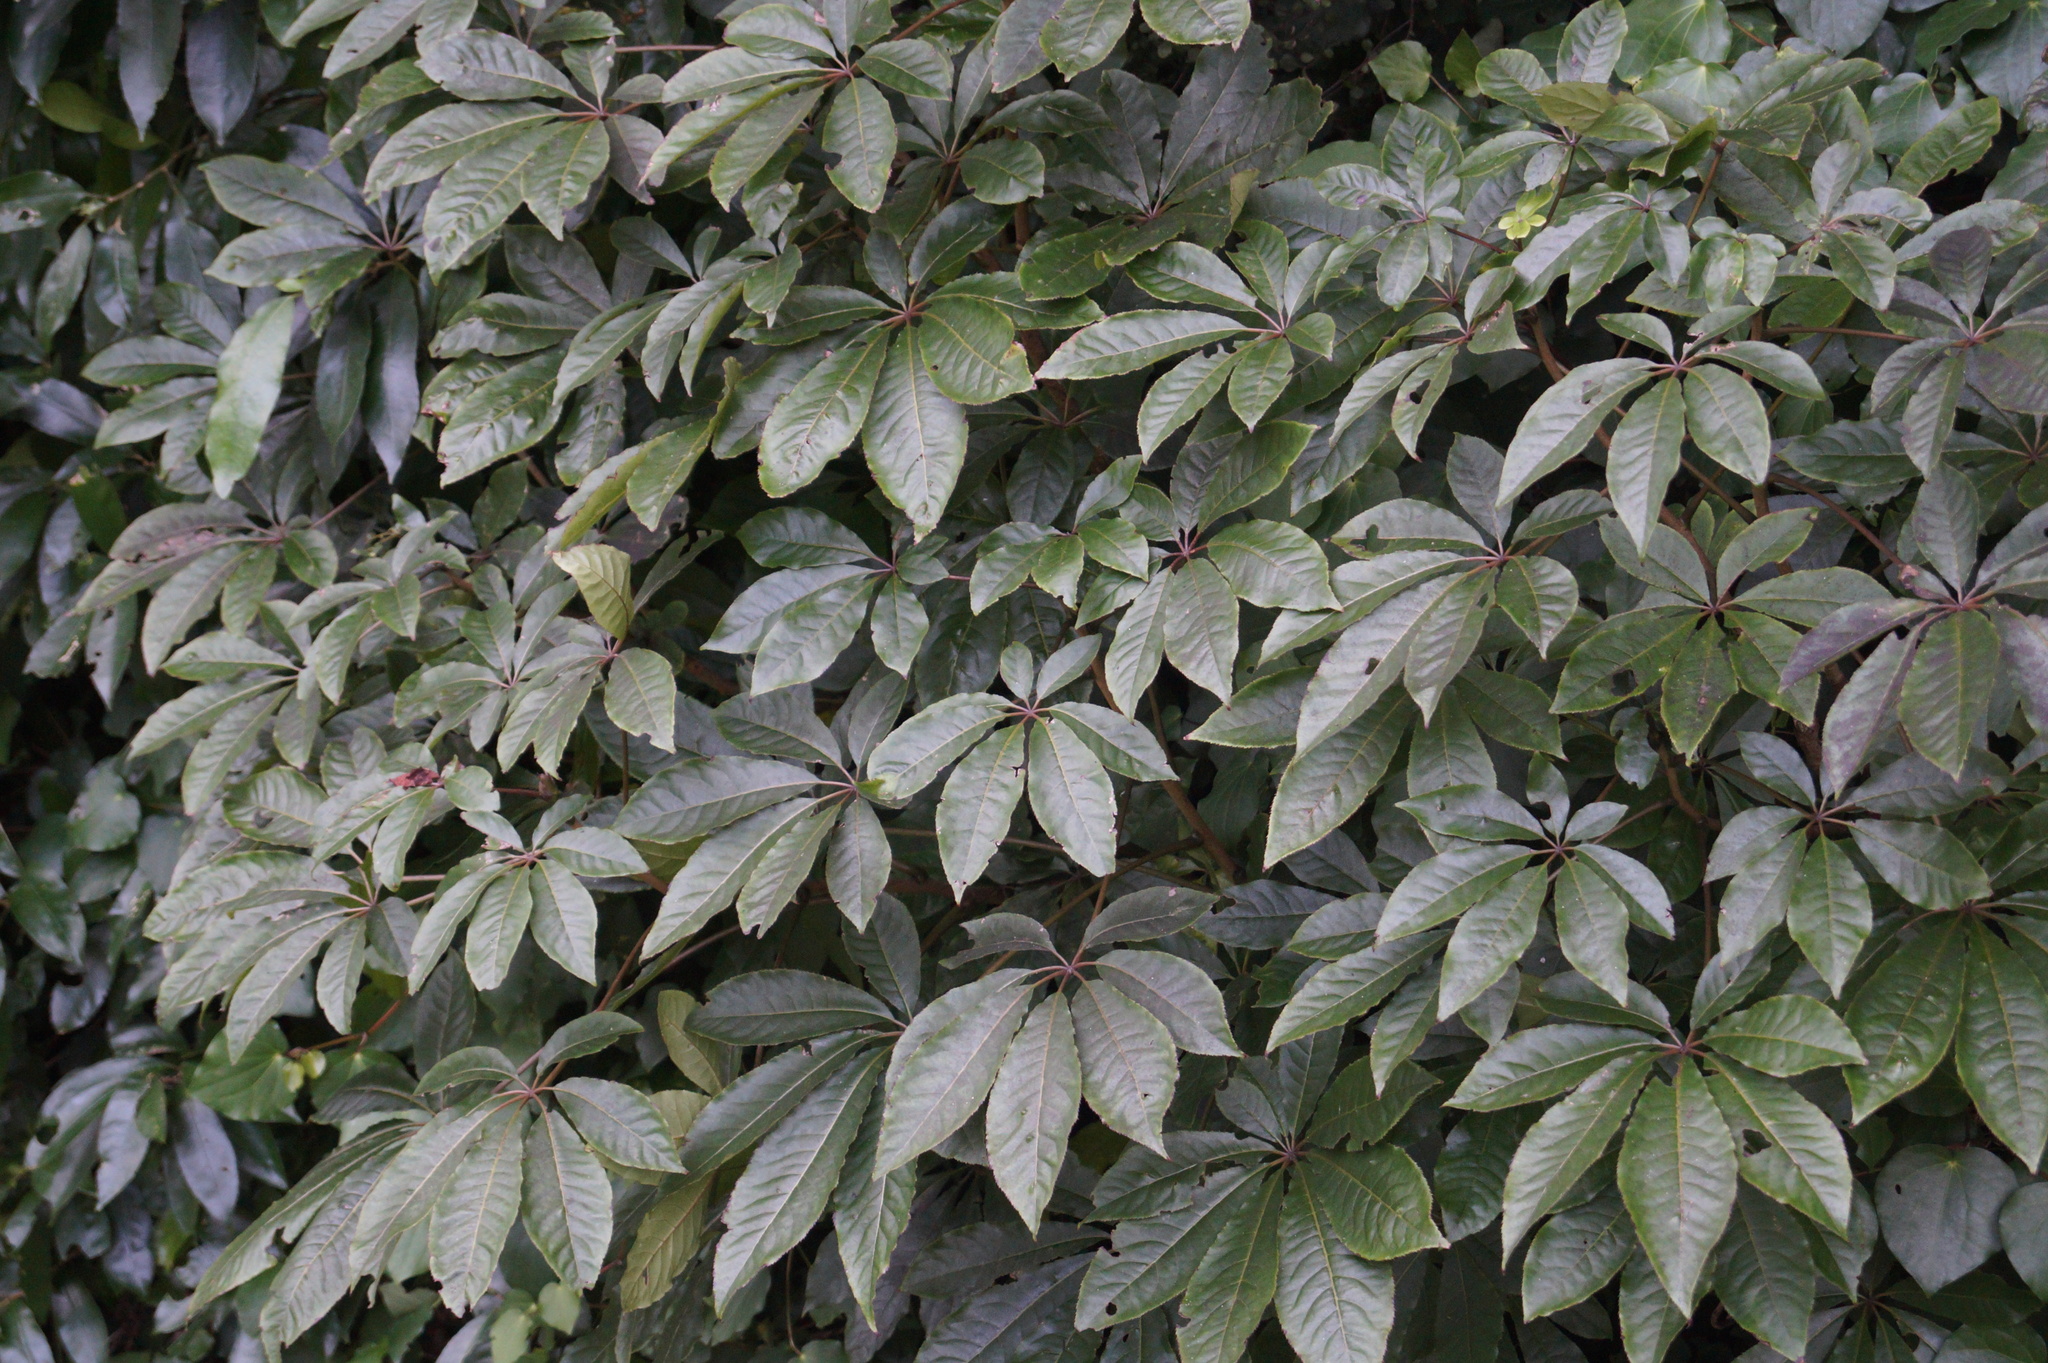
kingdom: Plantae
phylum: Tracheophyta
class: Magnoliopsida
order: Apiales
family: Araliaceae
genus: Schefflera
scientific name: Schefflera digitata
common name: Pate
